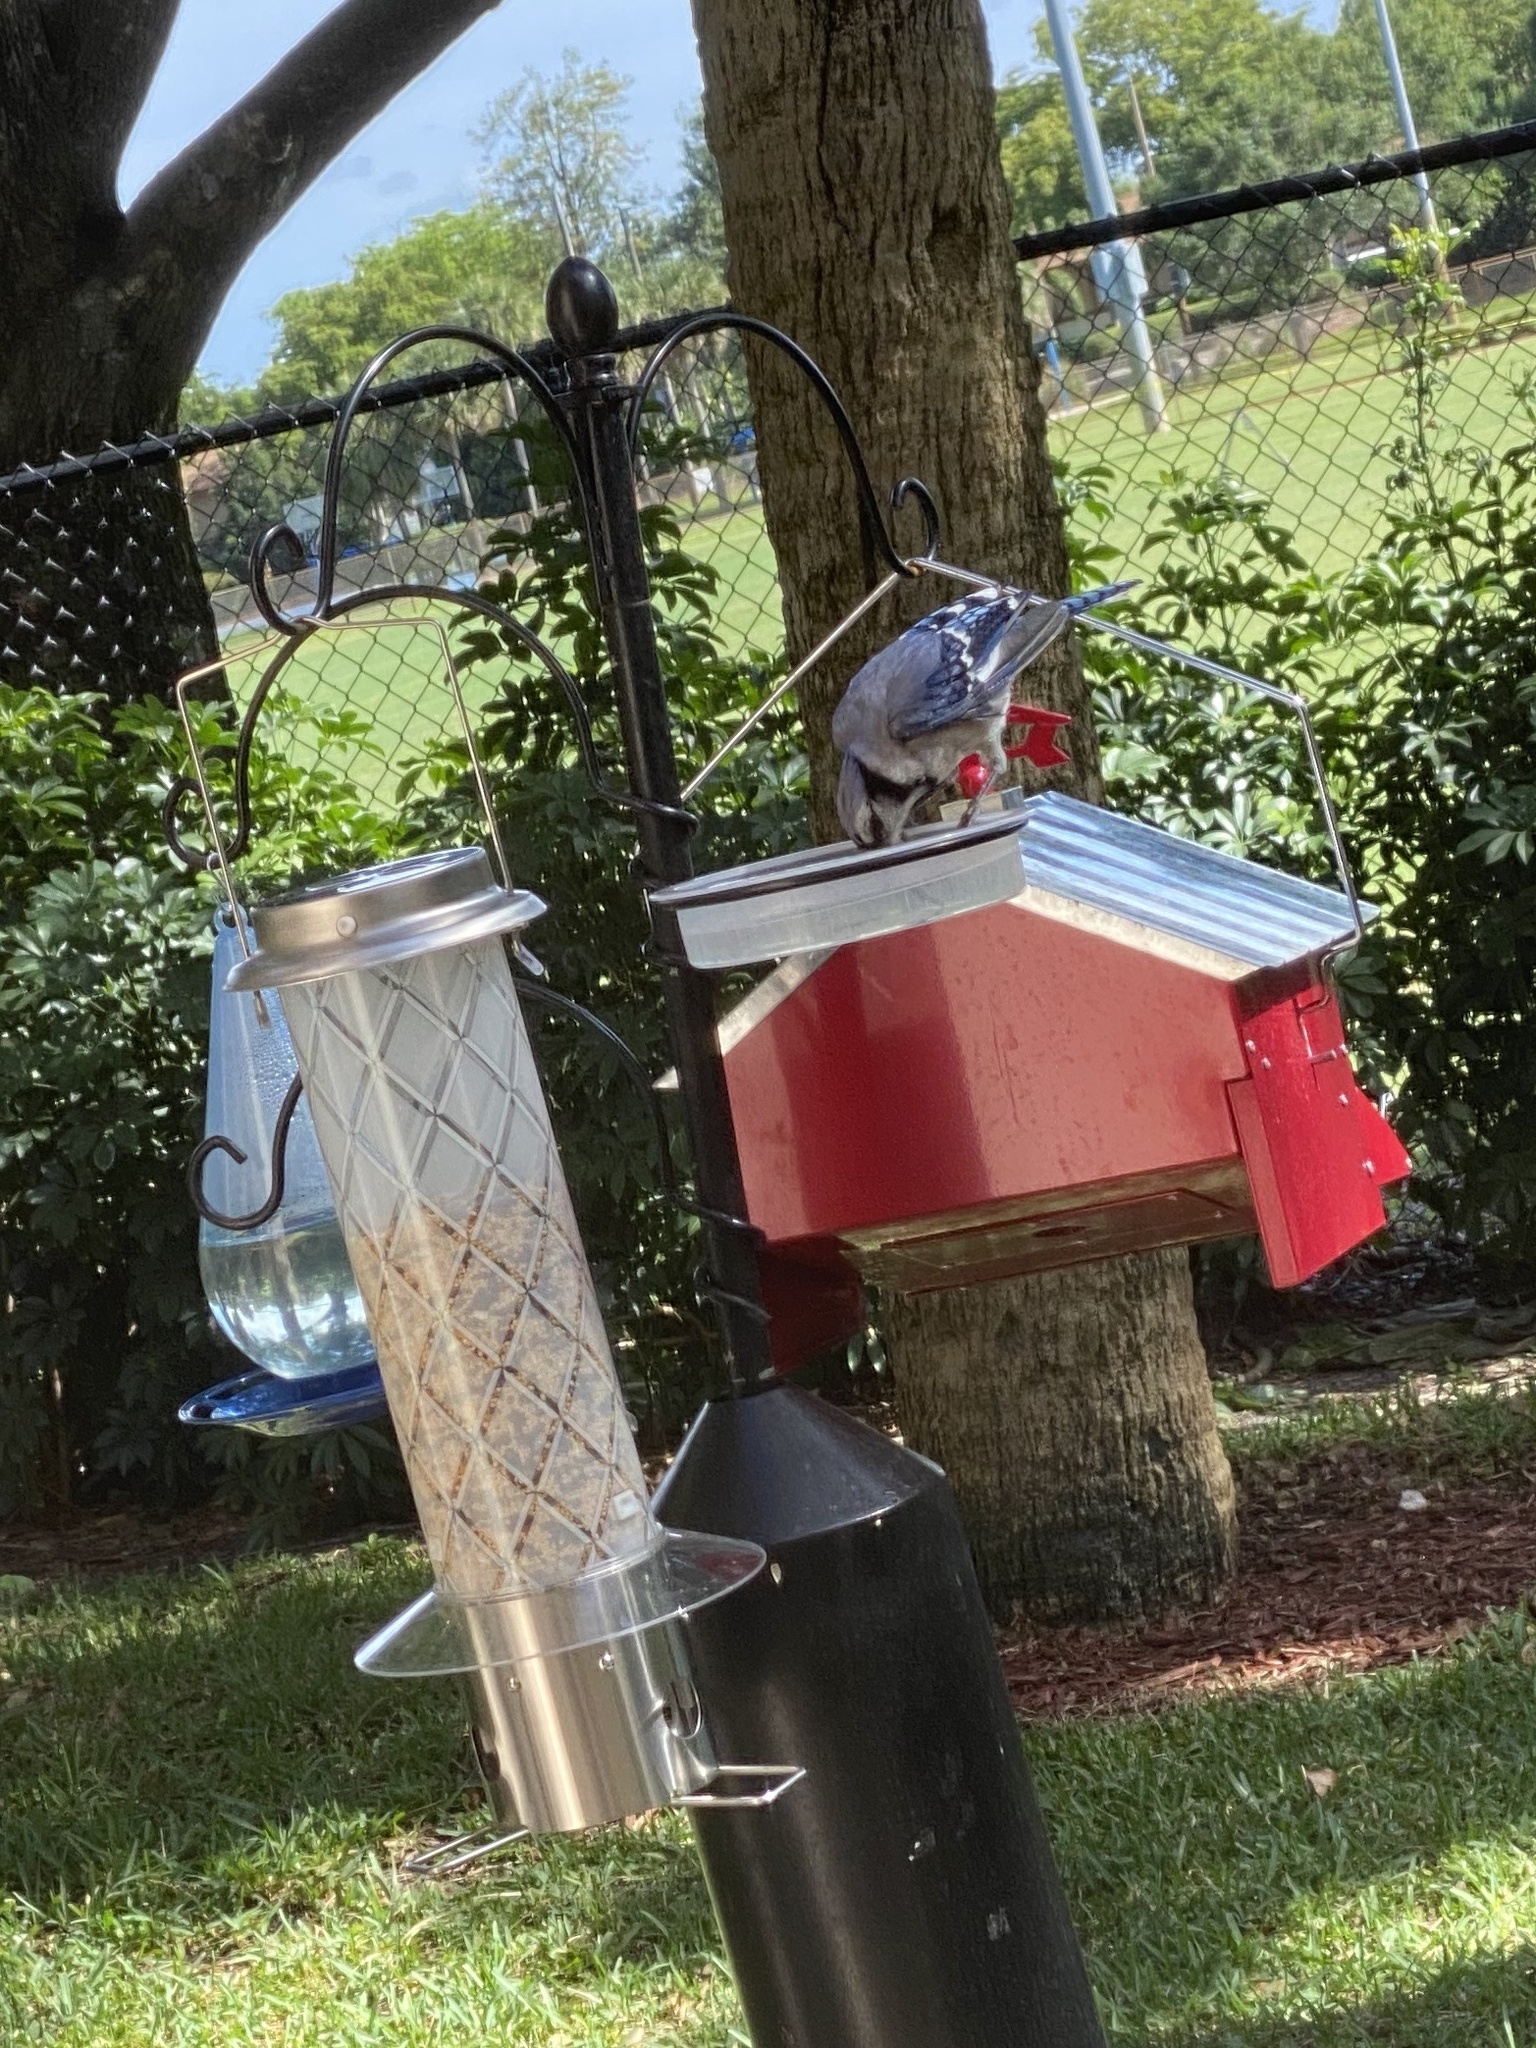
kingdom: Animalia
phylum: Chordata
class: Aves
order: Passeriformes
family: Corvidae
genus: Cyanocitta
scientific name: Cyanocitta cristata
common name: Blue jay
